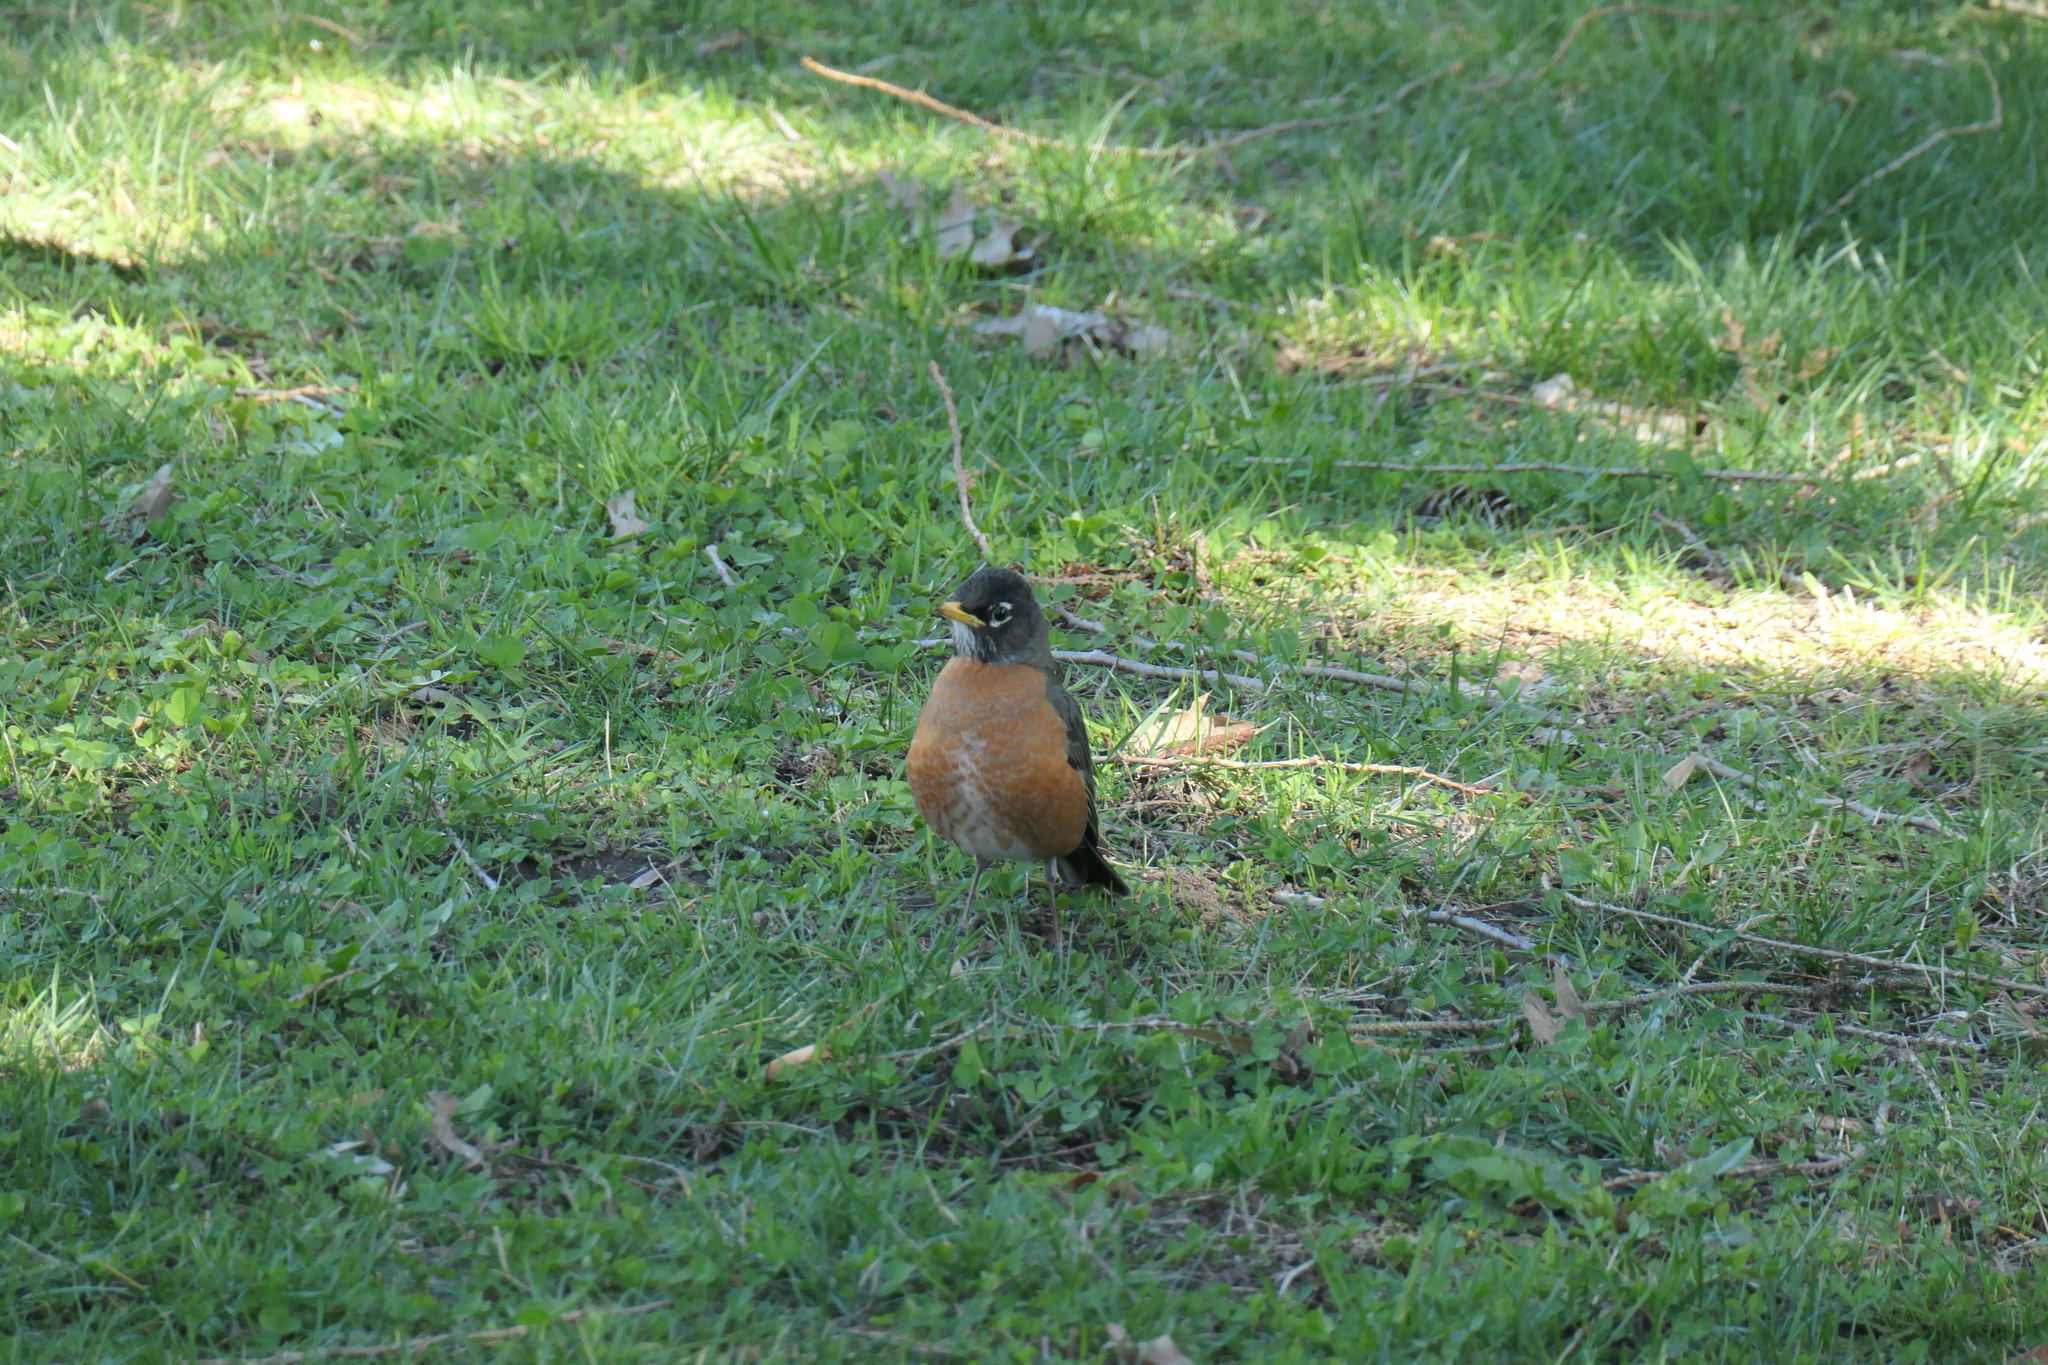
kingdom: Animalia
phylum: Chordata
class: Aves
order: Passeriformes
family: Turdidae
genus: Turdus
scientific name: Turdus migratorius
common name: American robin
